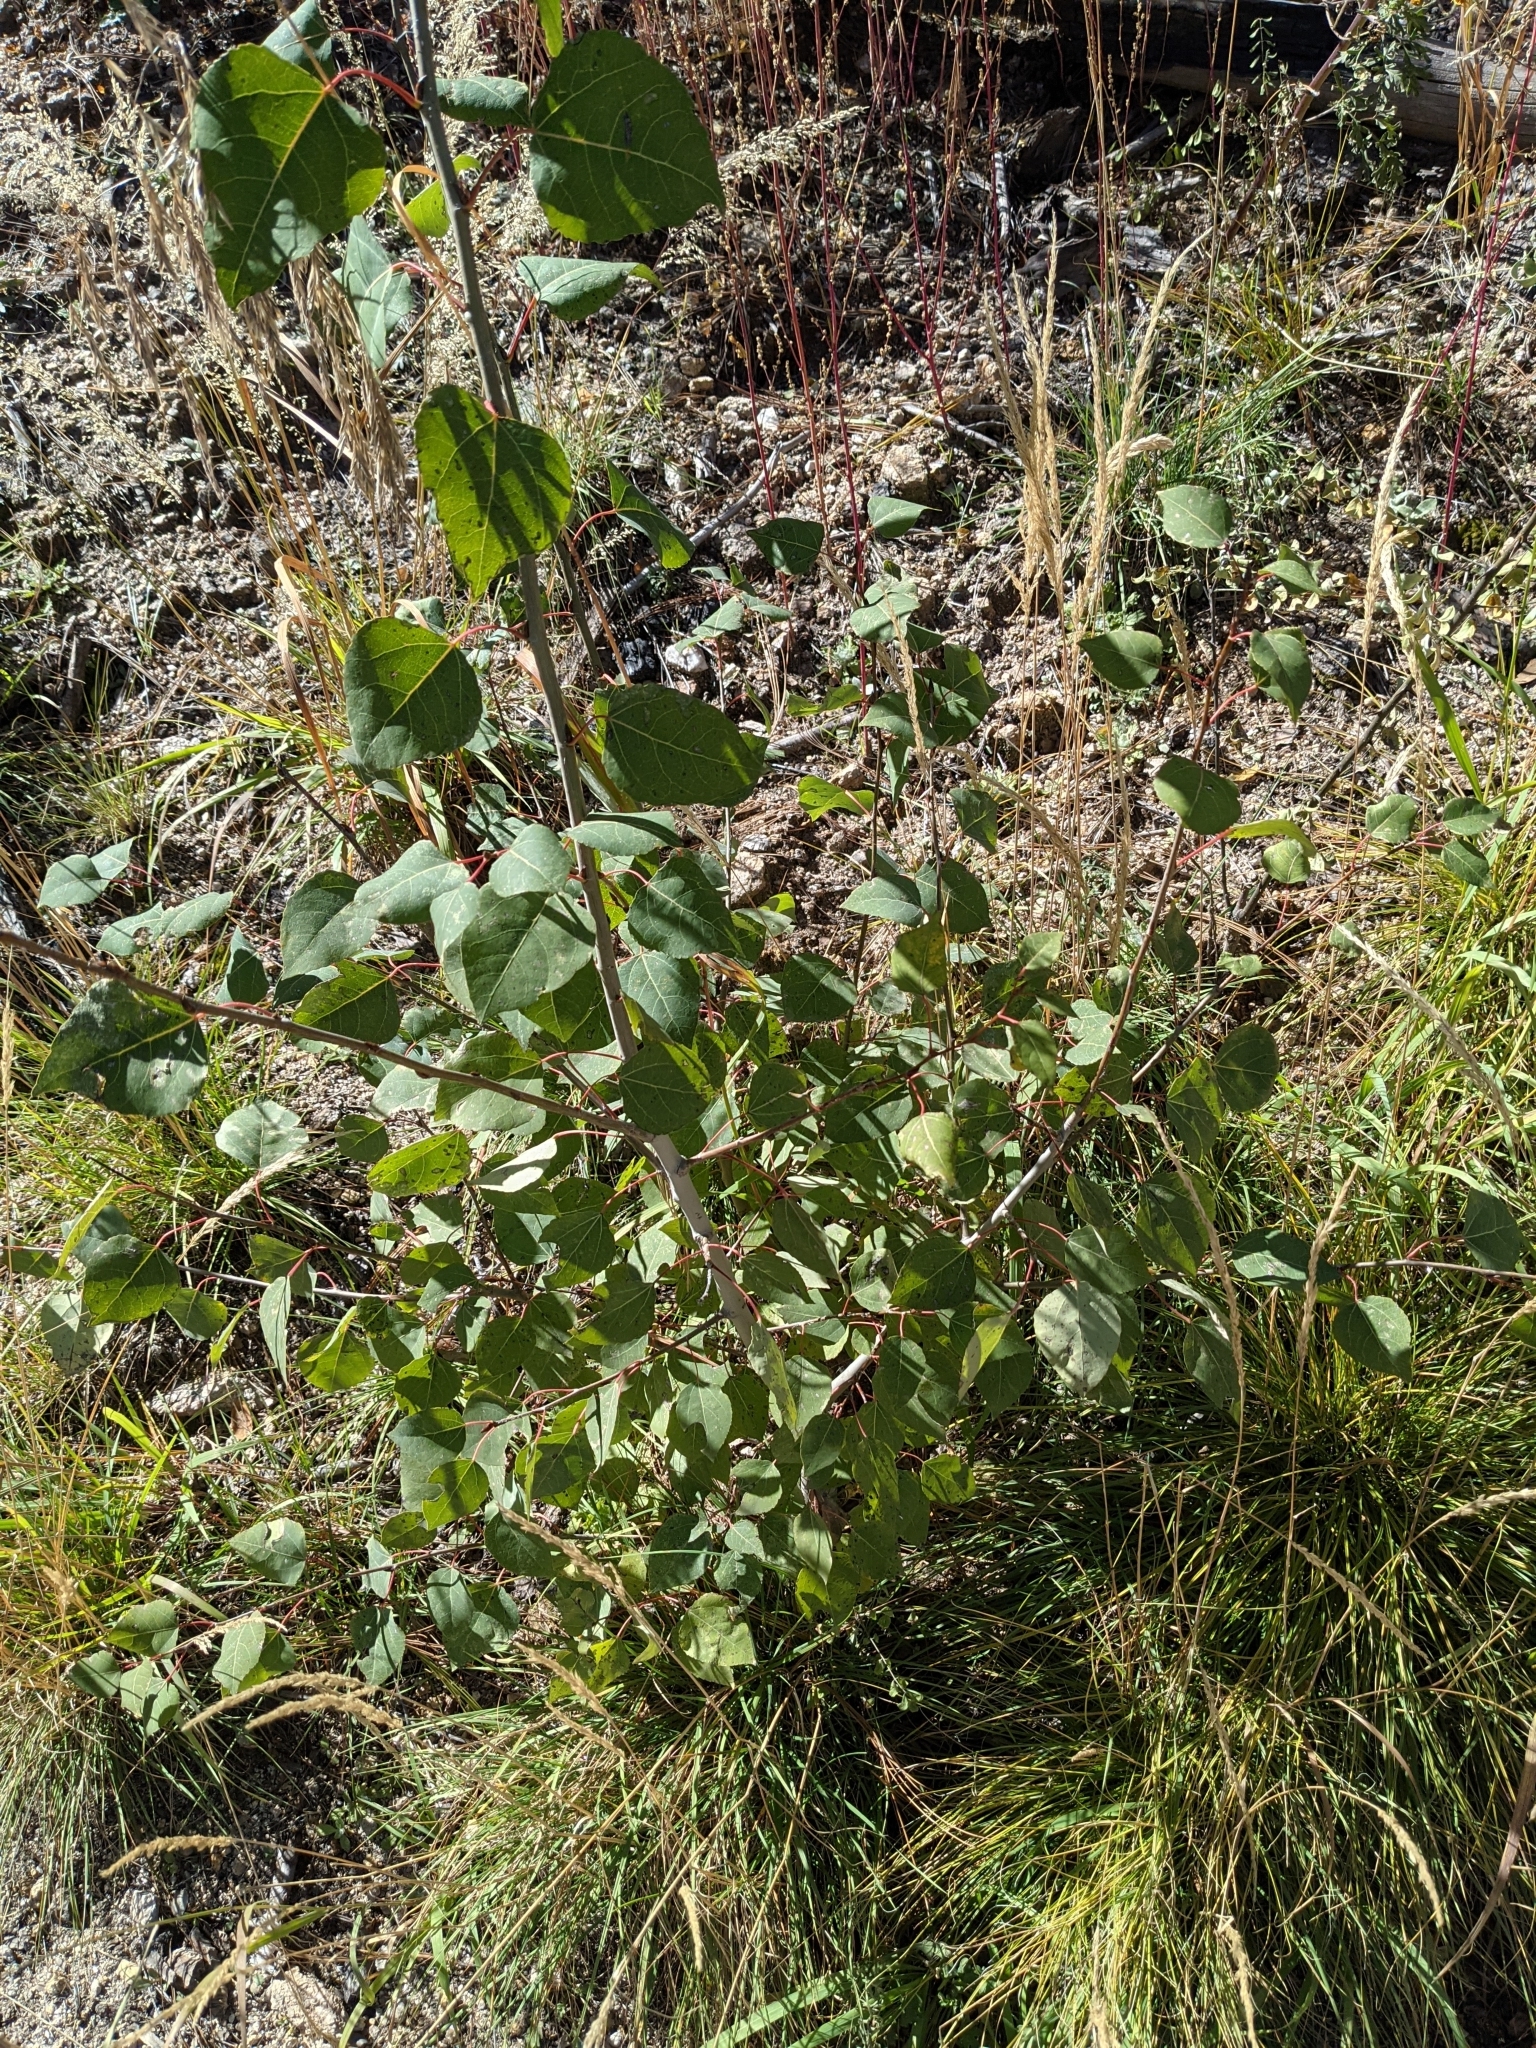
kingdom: Plantae
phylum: Tracheophyta
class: Magnoliopsida
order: Malpighiales
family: Salicaceae
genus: Populus
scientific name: Populus fremontii
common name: Fremont's cottonwood
